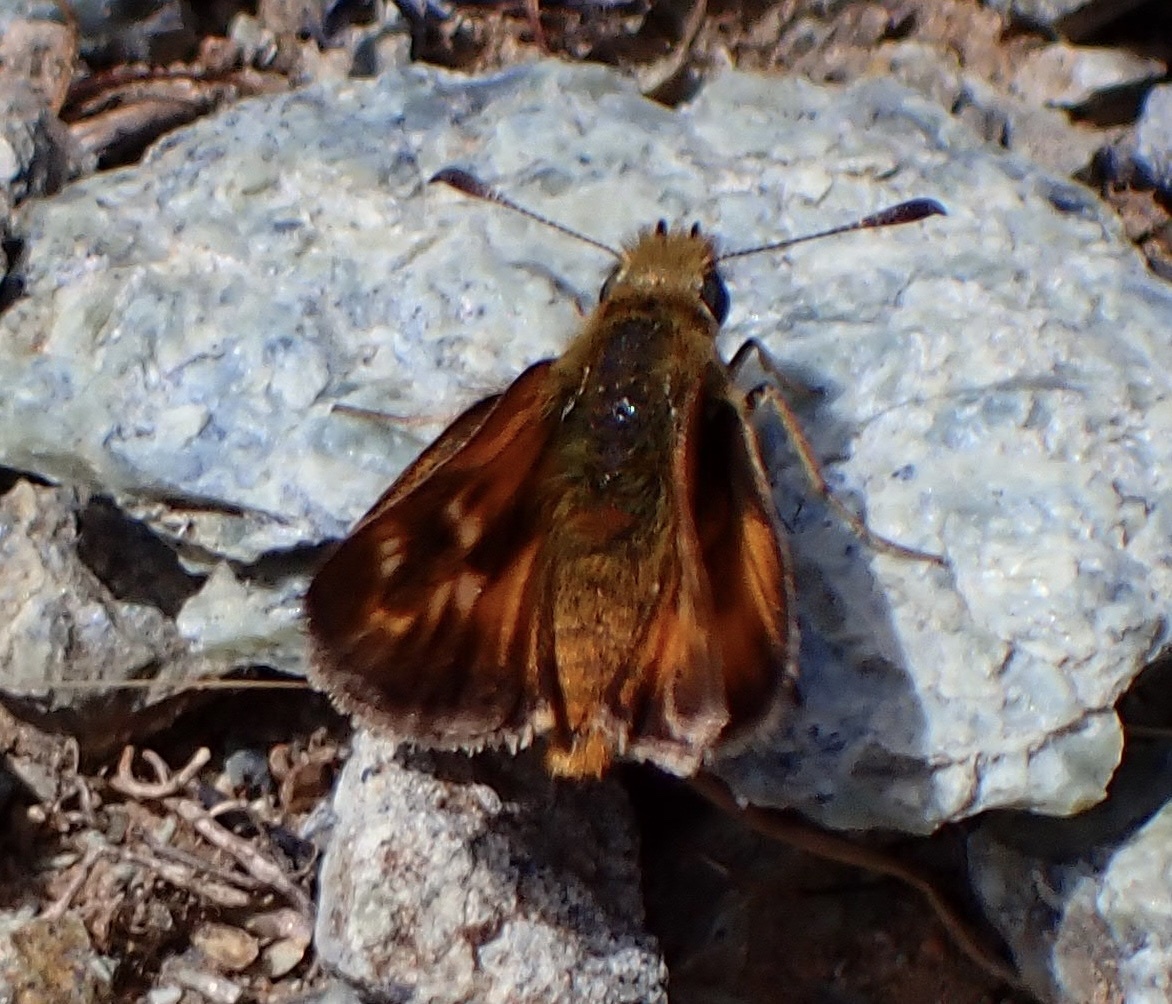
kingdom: Animalia
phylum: Arthropoda
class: Insecta
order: Lepidoptera
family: Hesperiidae
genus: Ochlodes
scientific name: Ochlodes agricola
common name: Rural skipper
